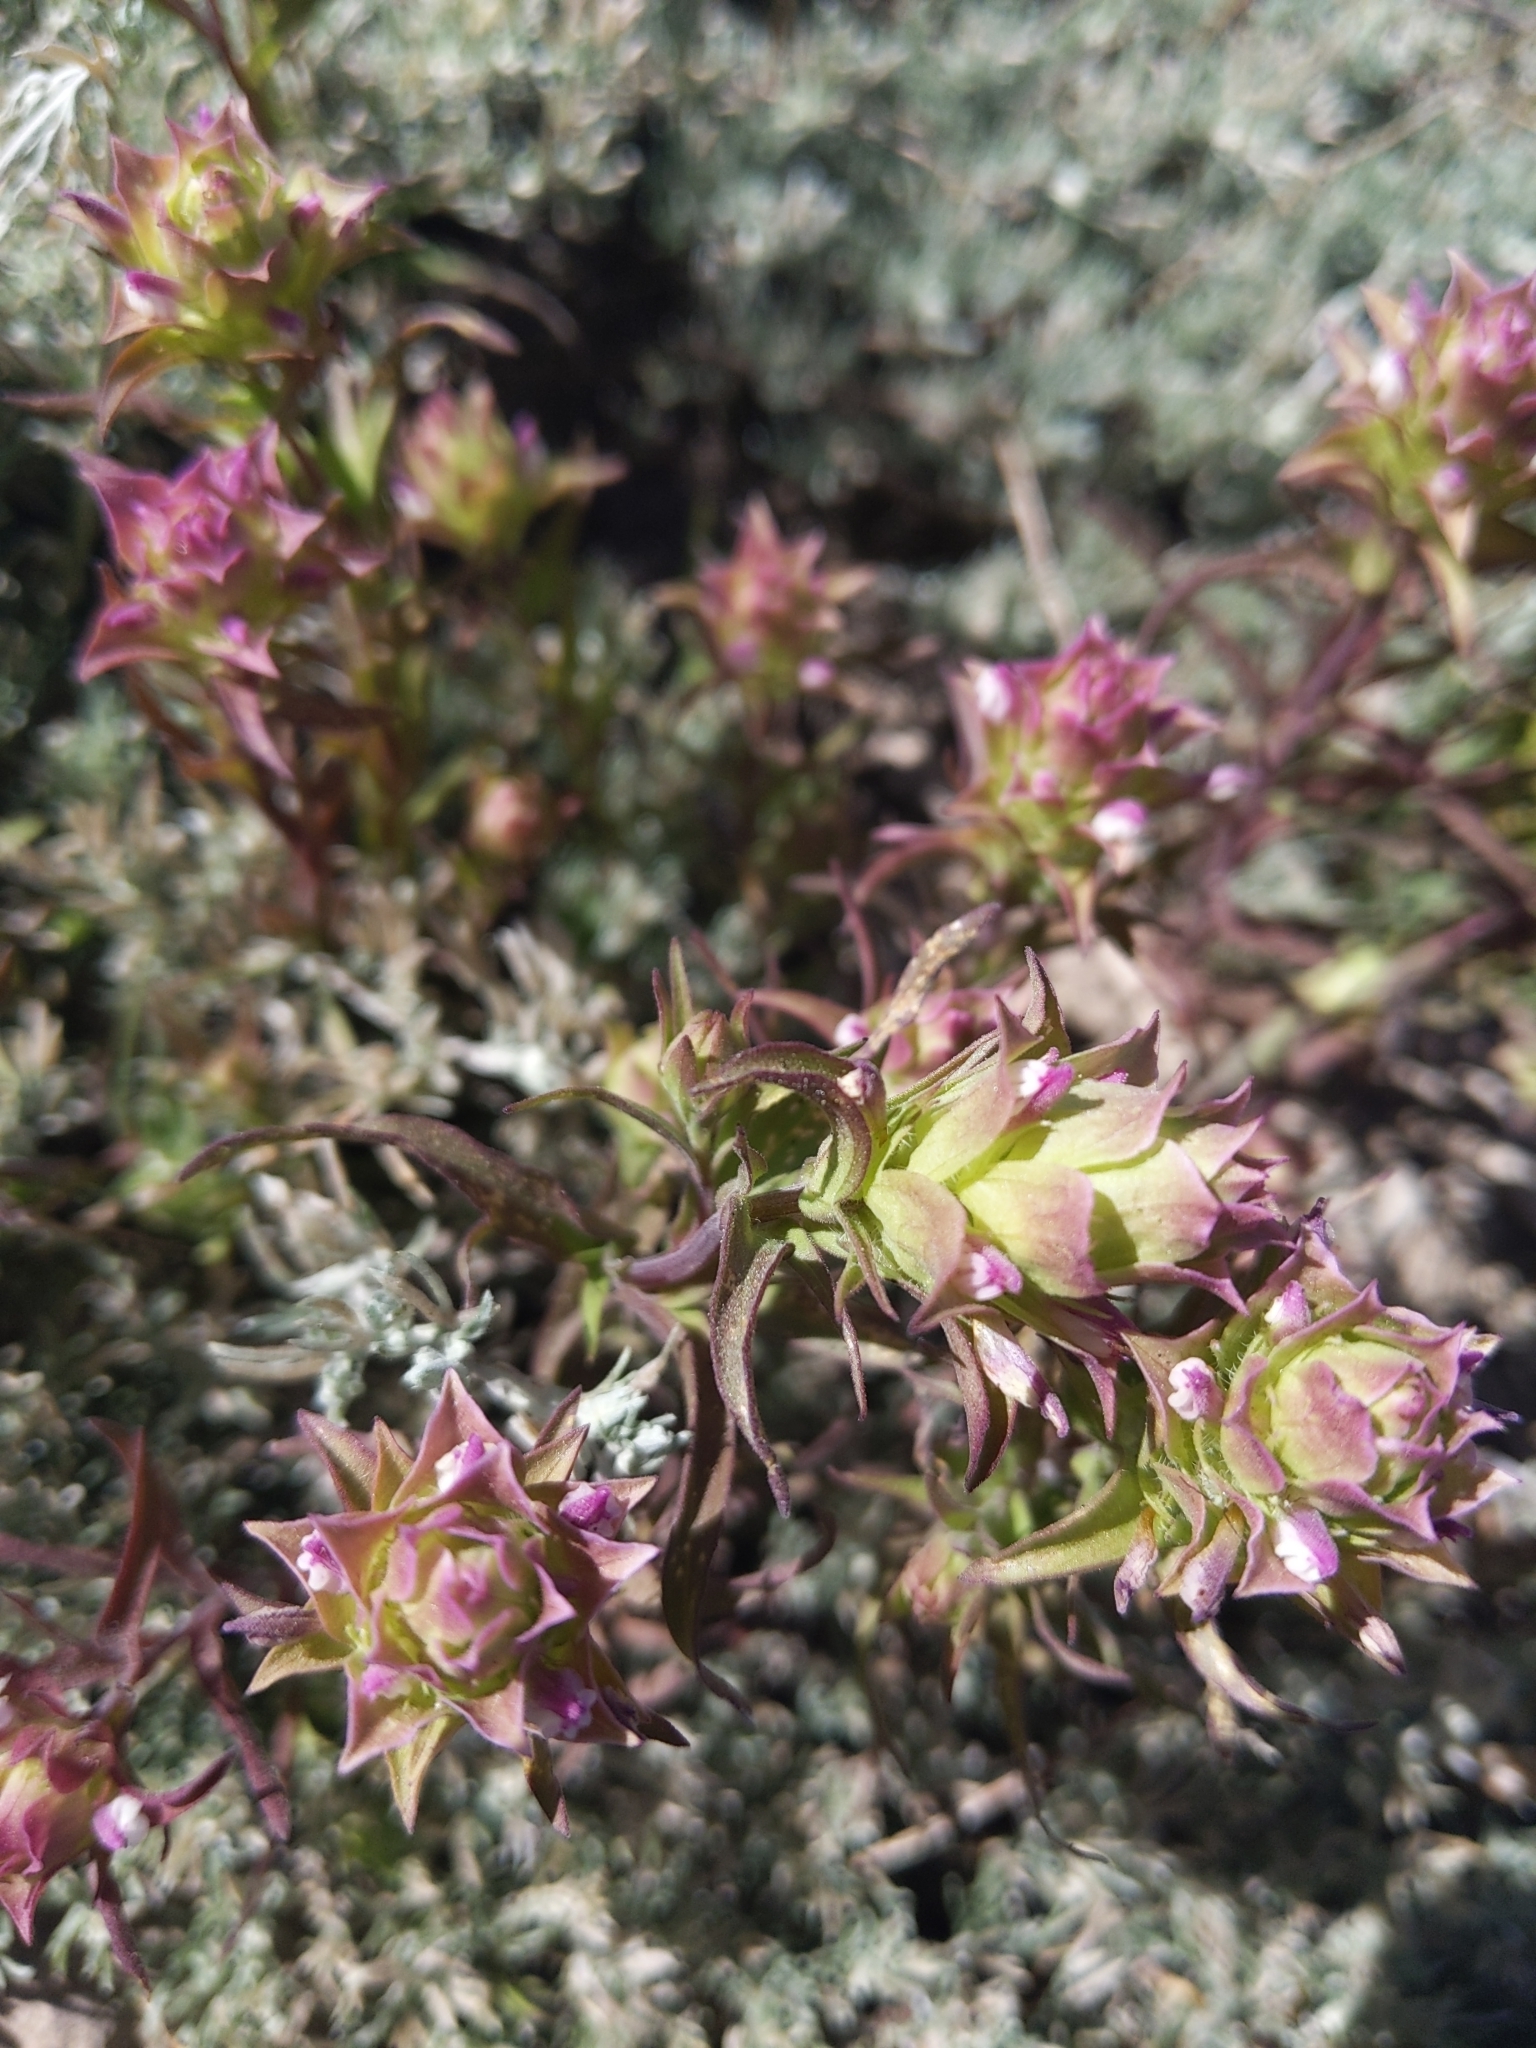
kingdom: Plantae
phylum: Tracheophyta
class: Magnoliopsida
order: Lamiales
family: Orobanchaceae
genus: Orthocarpus
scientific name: Orthocarpus cuspidatus
